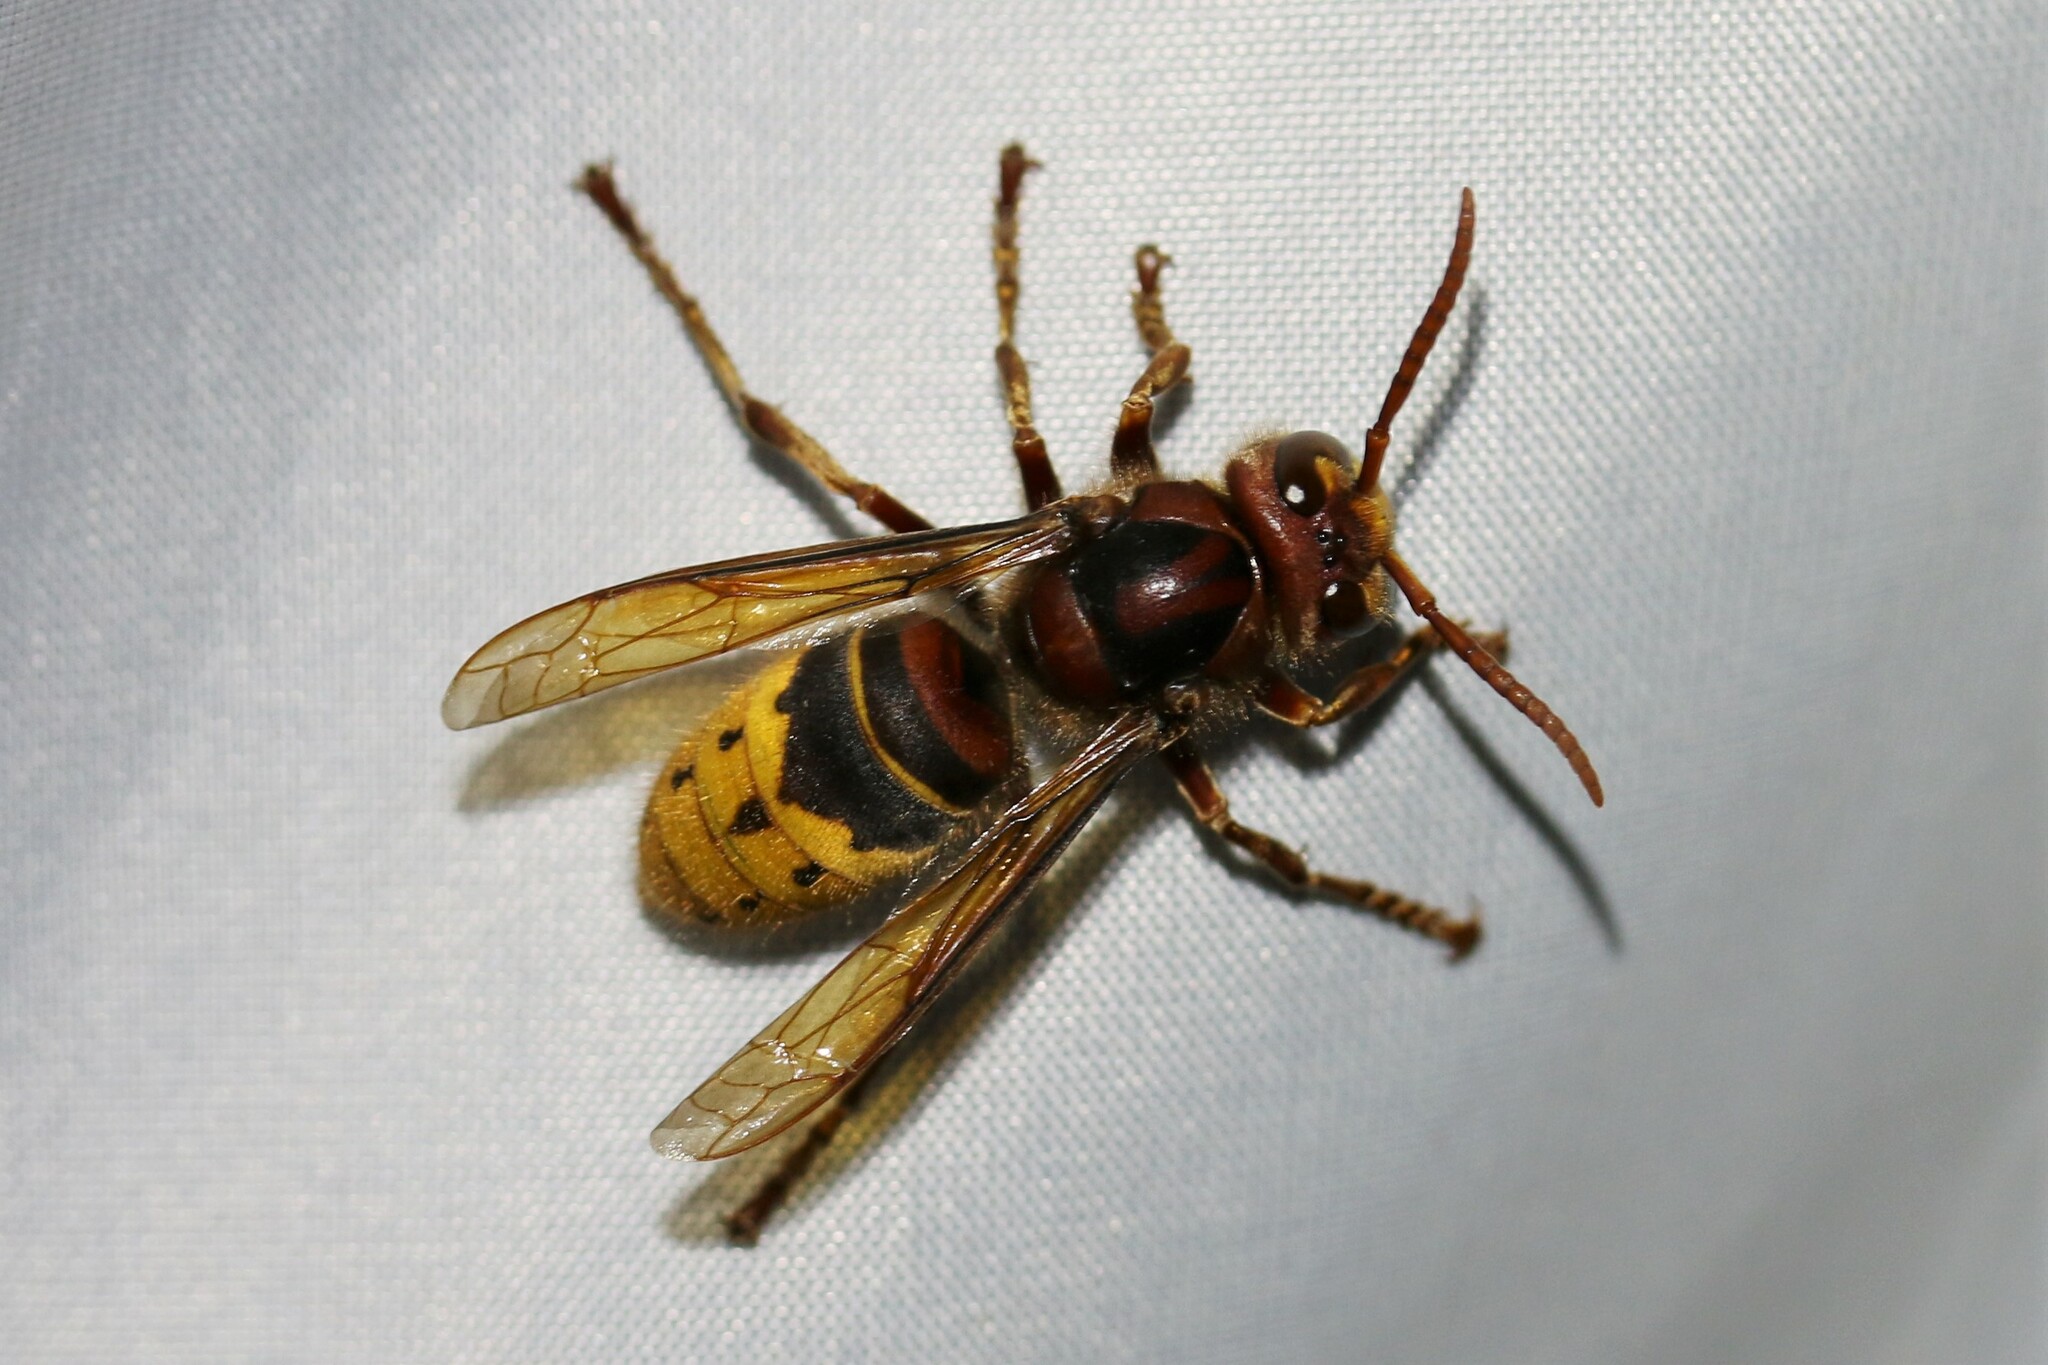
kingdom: Animalia
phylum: Arthropoda
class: Insecta
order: Hymenoptera
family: Vespidae
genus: Vespa
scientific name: Vespa crabro
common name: Hornet
